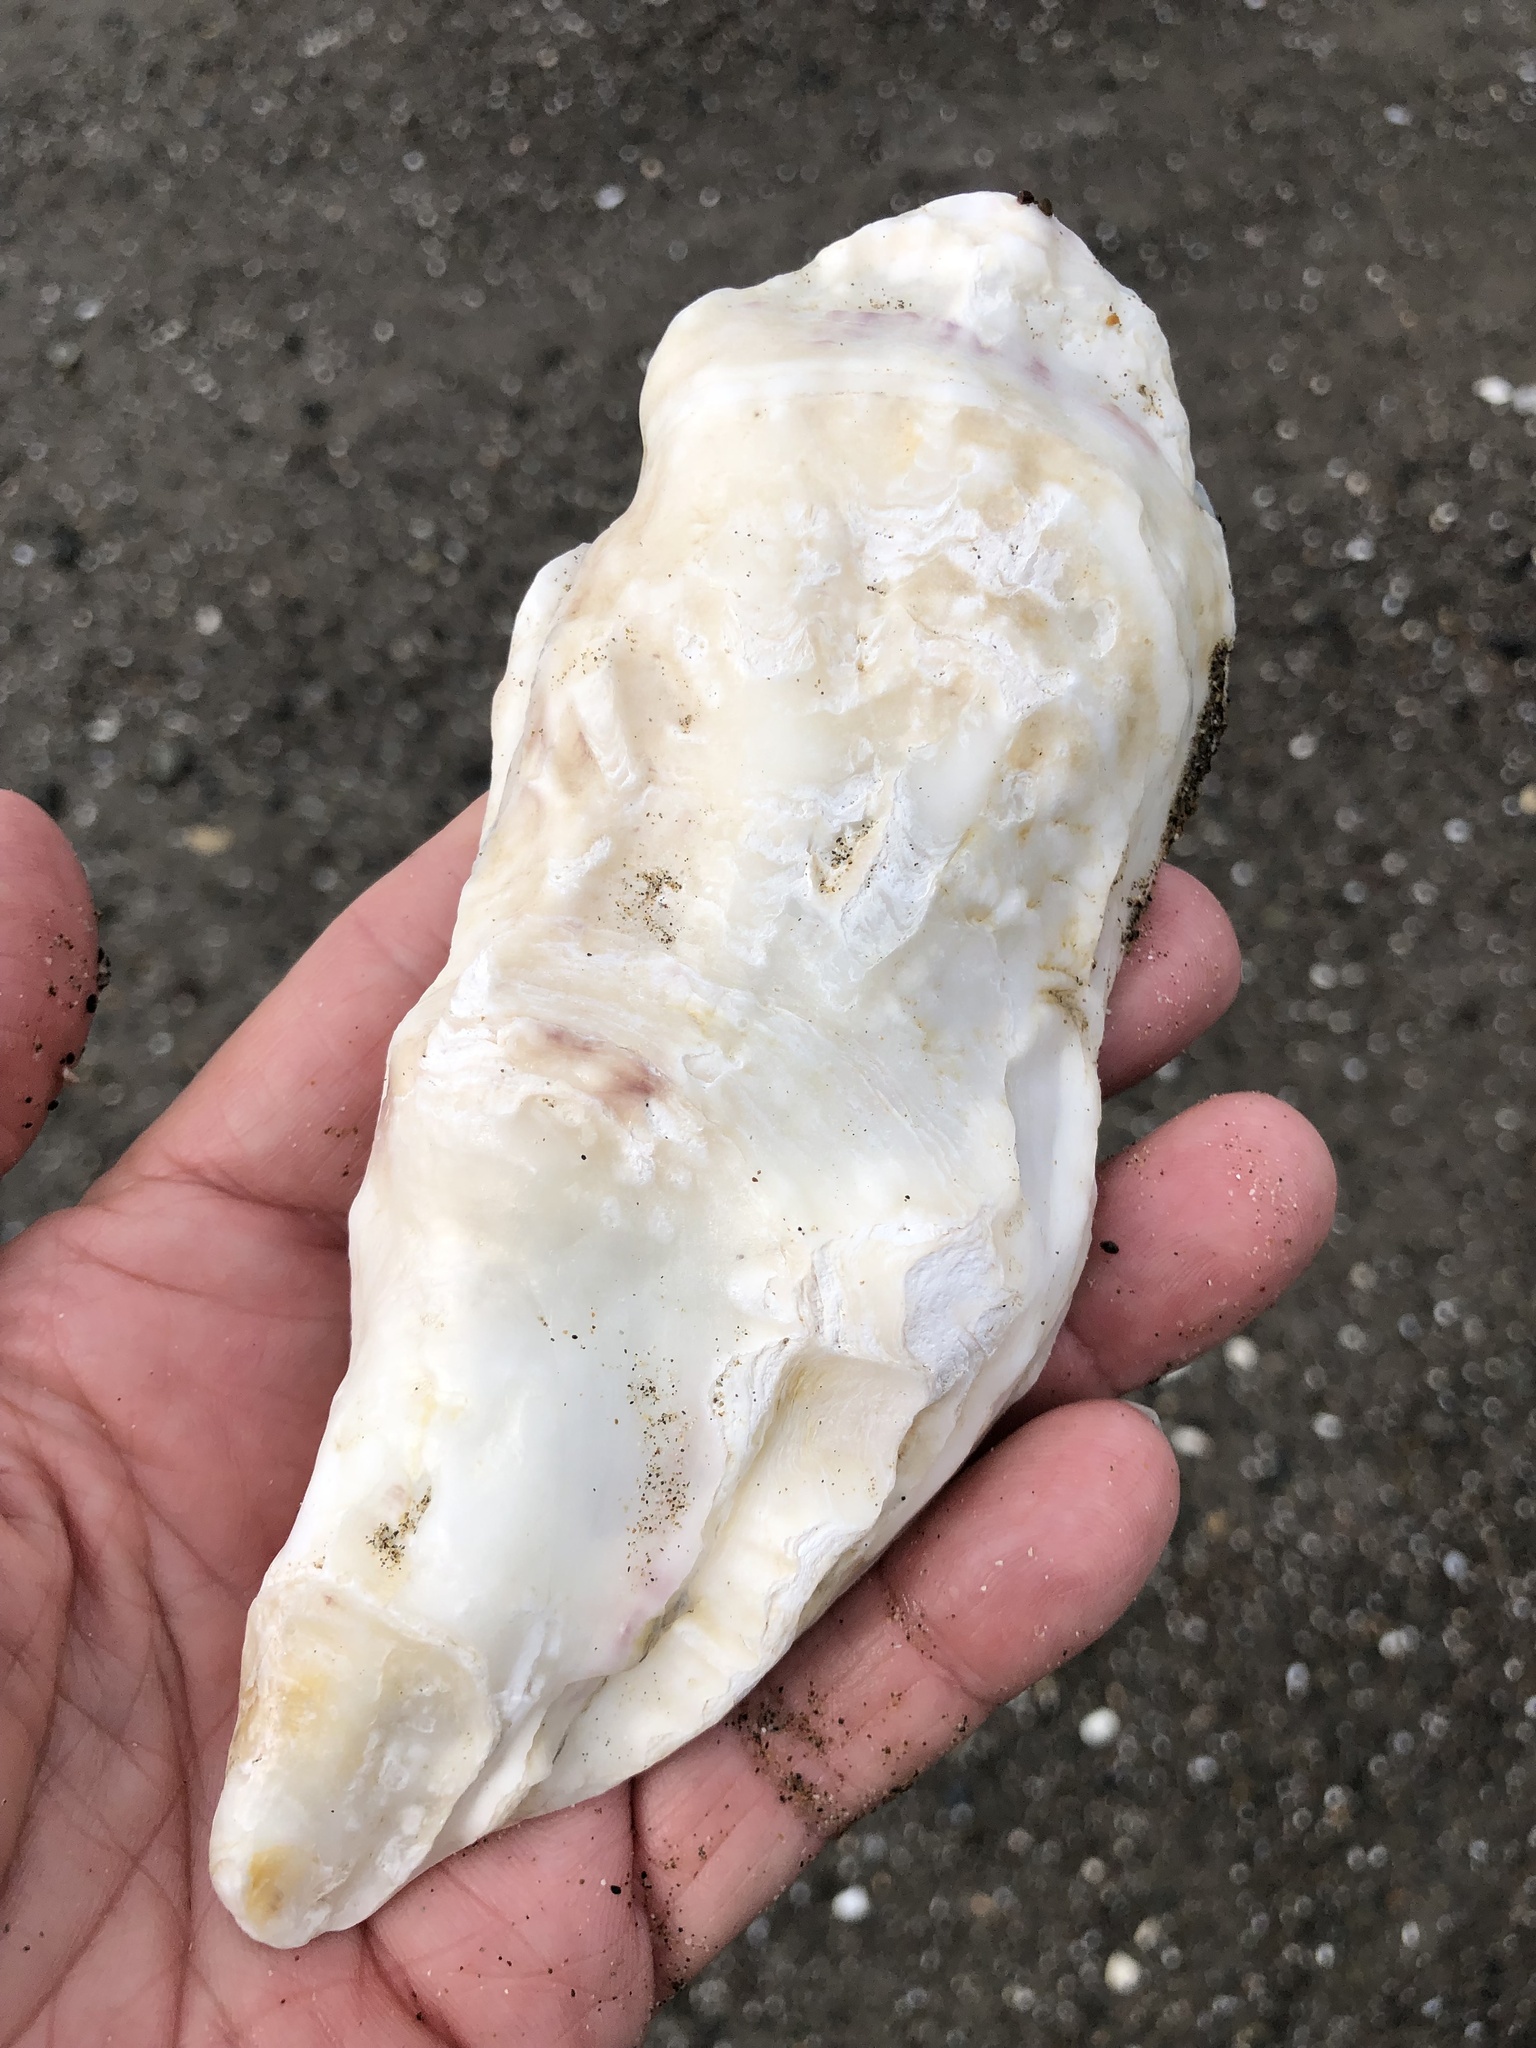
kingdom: Animalia
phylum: Mollusca
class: Bivalvia
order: Ostreida
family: Ostreidae
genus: Magallana
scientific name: Magallana gigas
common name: Pacific oyster
